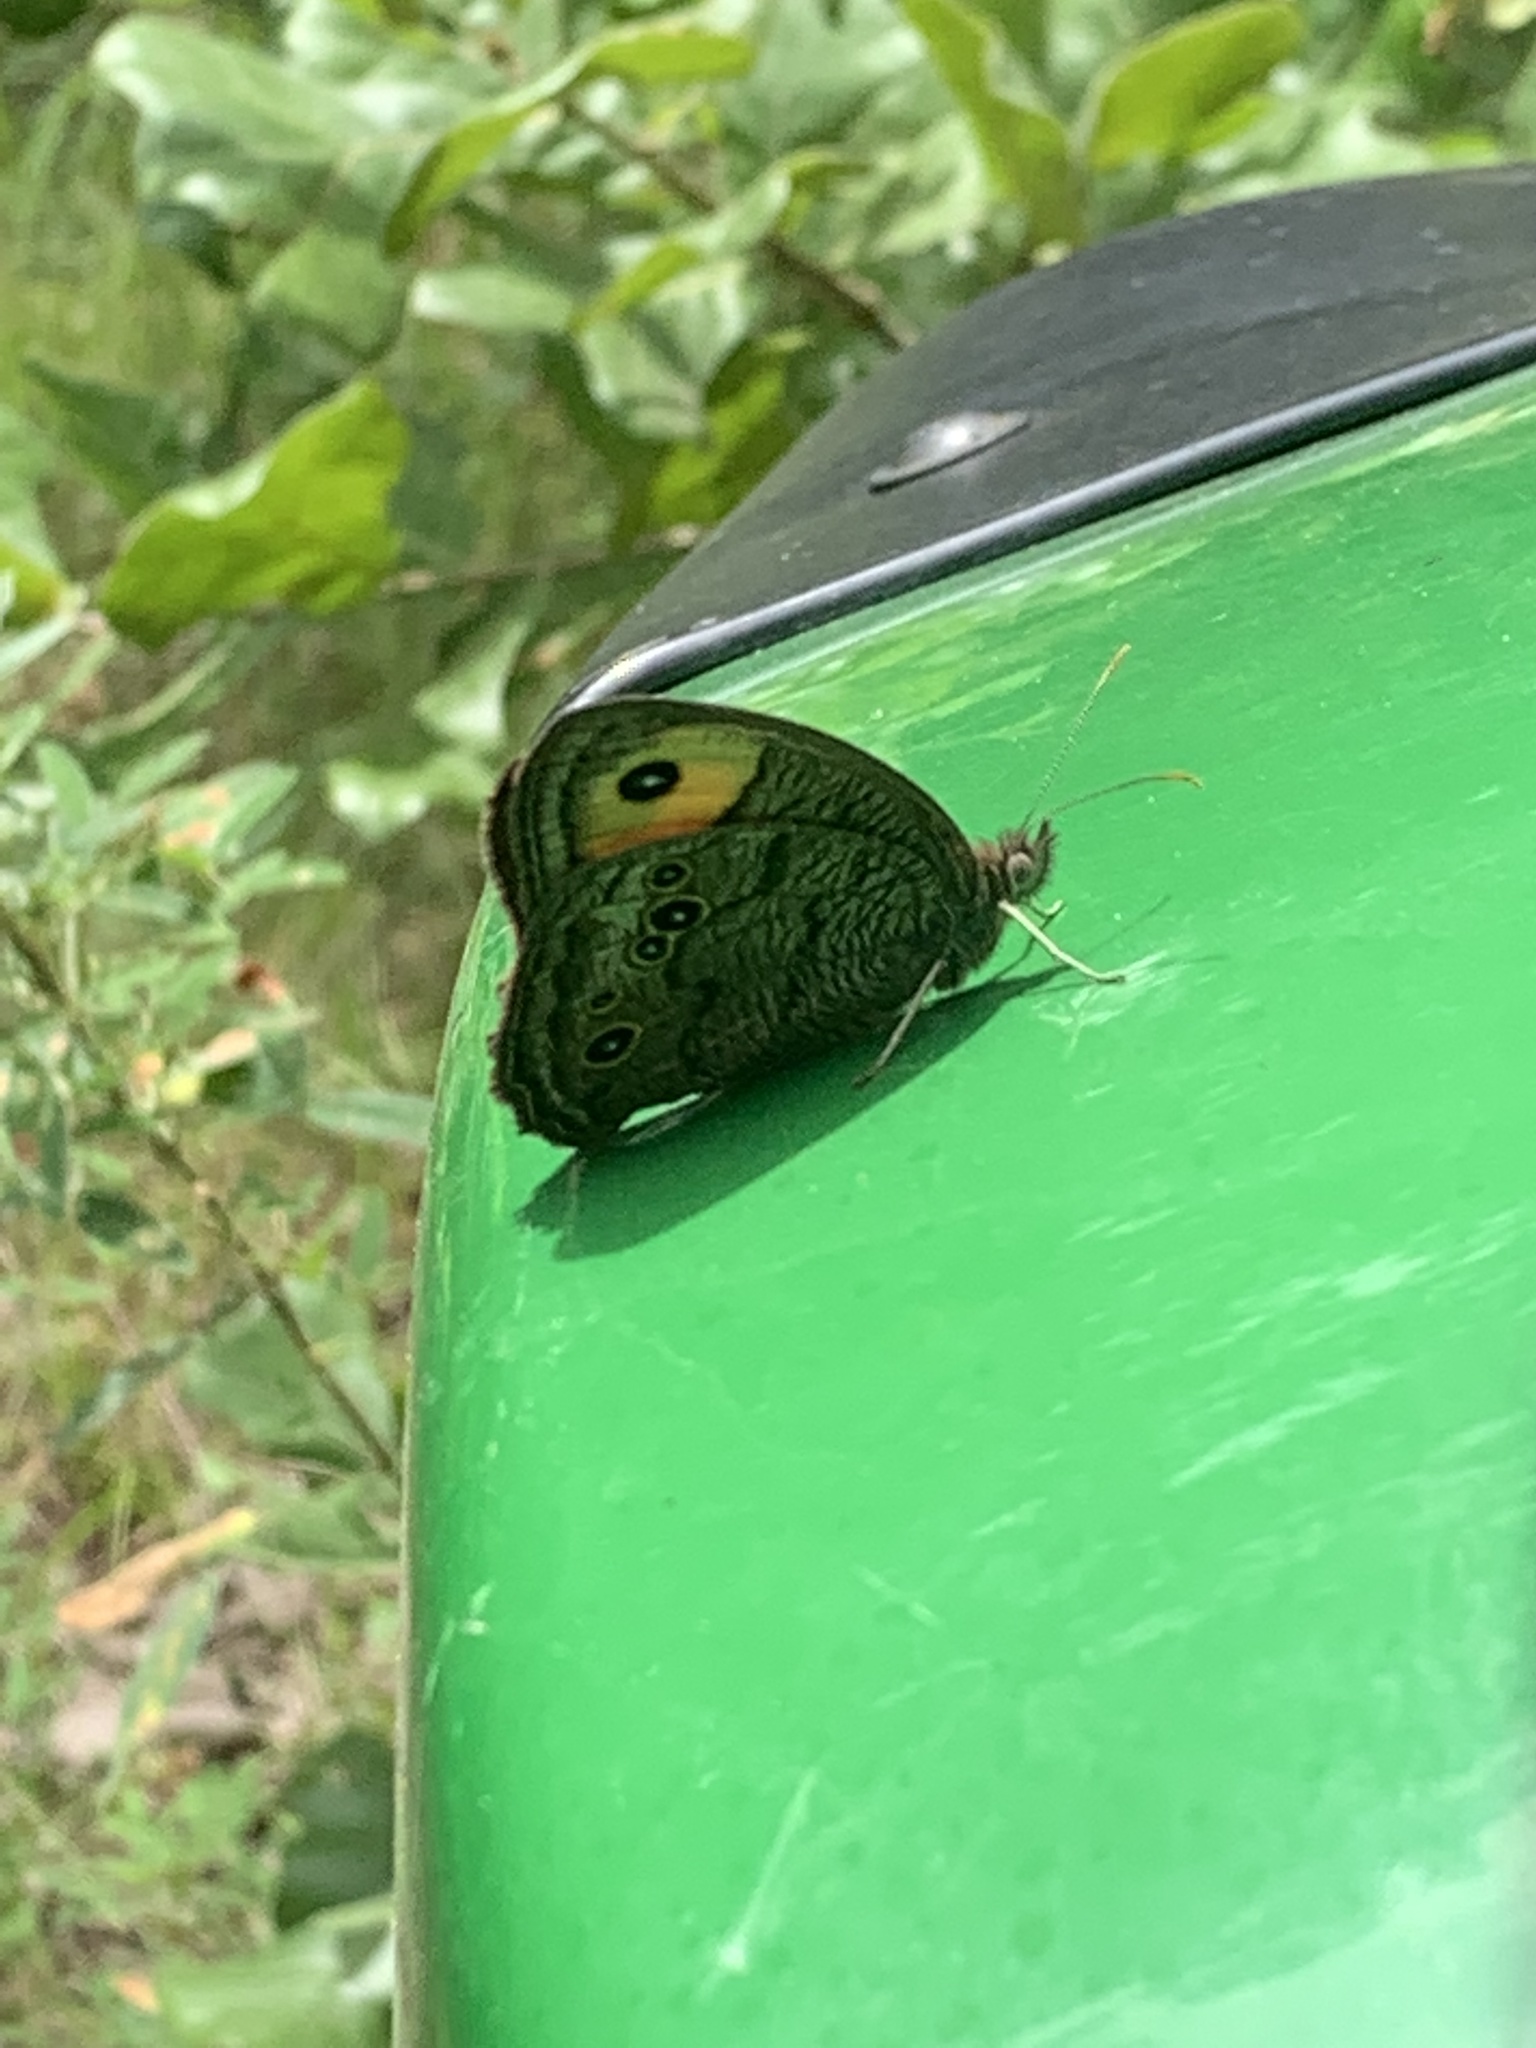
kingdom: Animalia
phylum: Arthropoda
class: Insecta
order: Lepidoptera
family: Nymphalidae
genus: Cercyonis
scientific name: Cercyonis pegala
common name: Common wood-nymph
